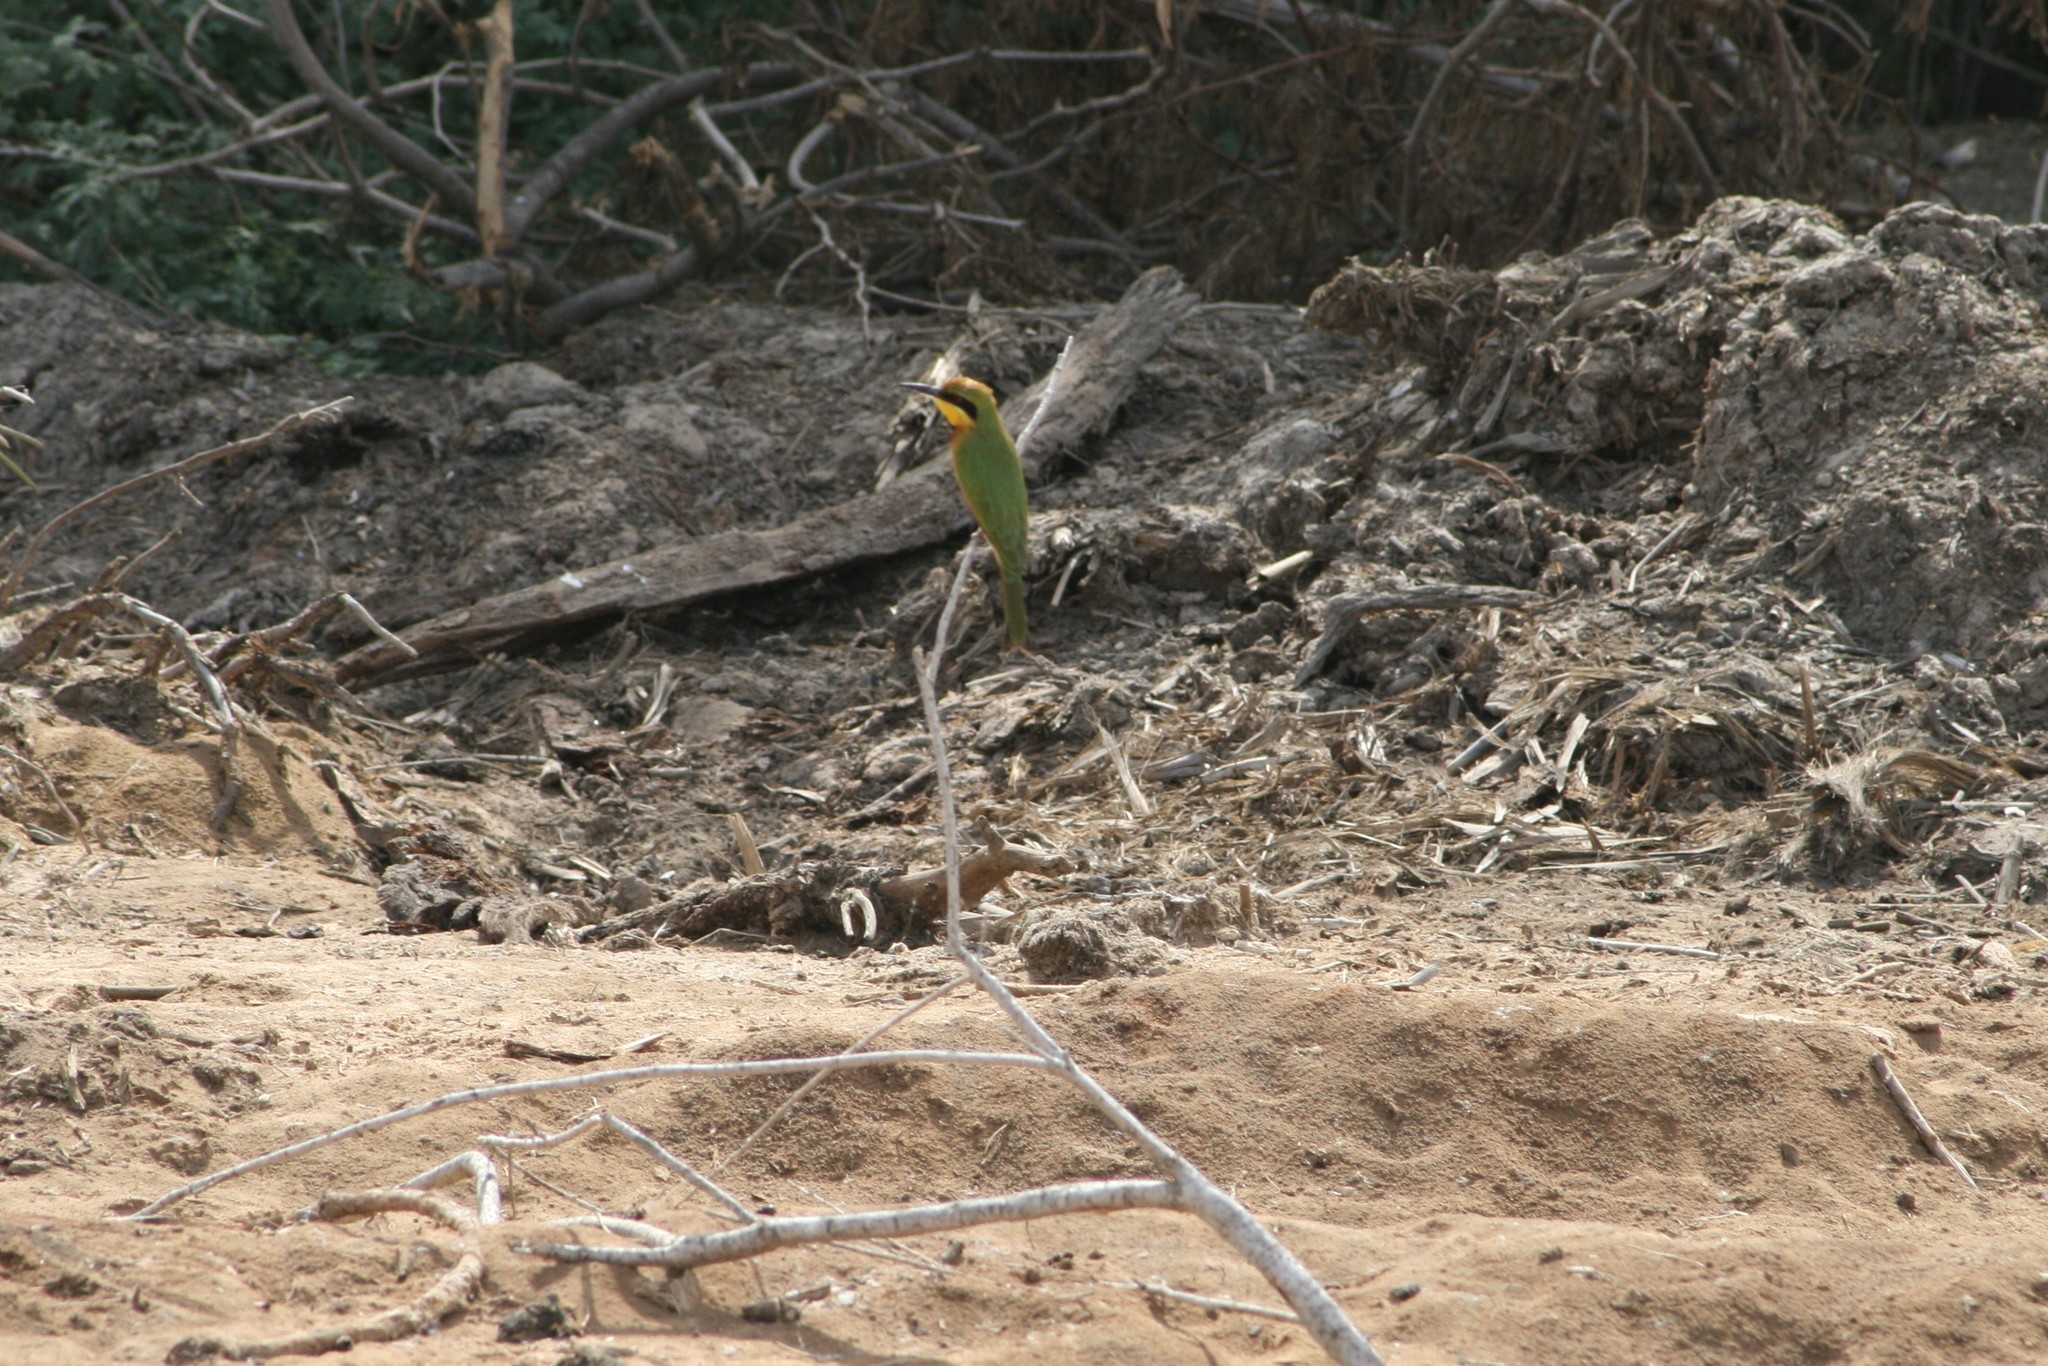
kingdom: Animalia
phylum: Chordata
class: Aves
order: Coraciiformes
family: Meropidae
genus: Merops
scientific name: Merops pusillus
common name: Little bee-eater
